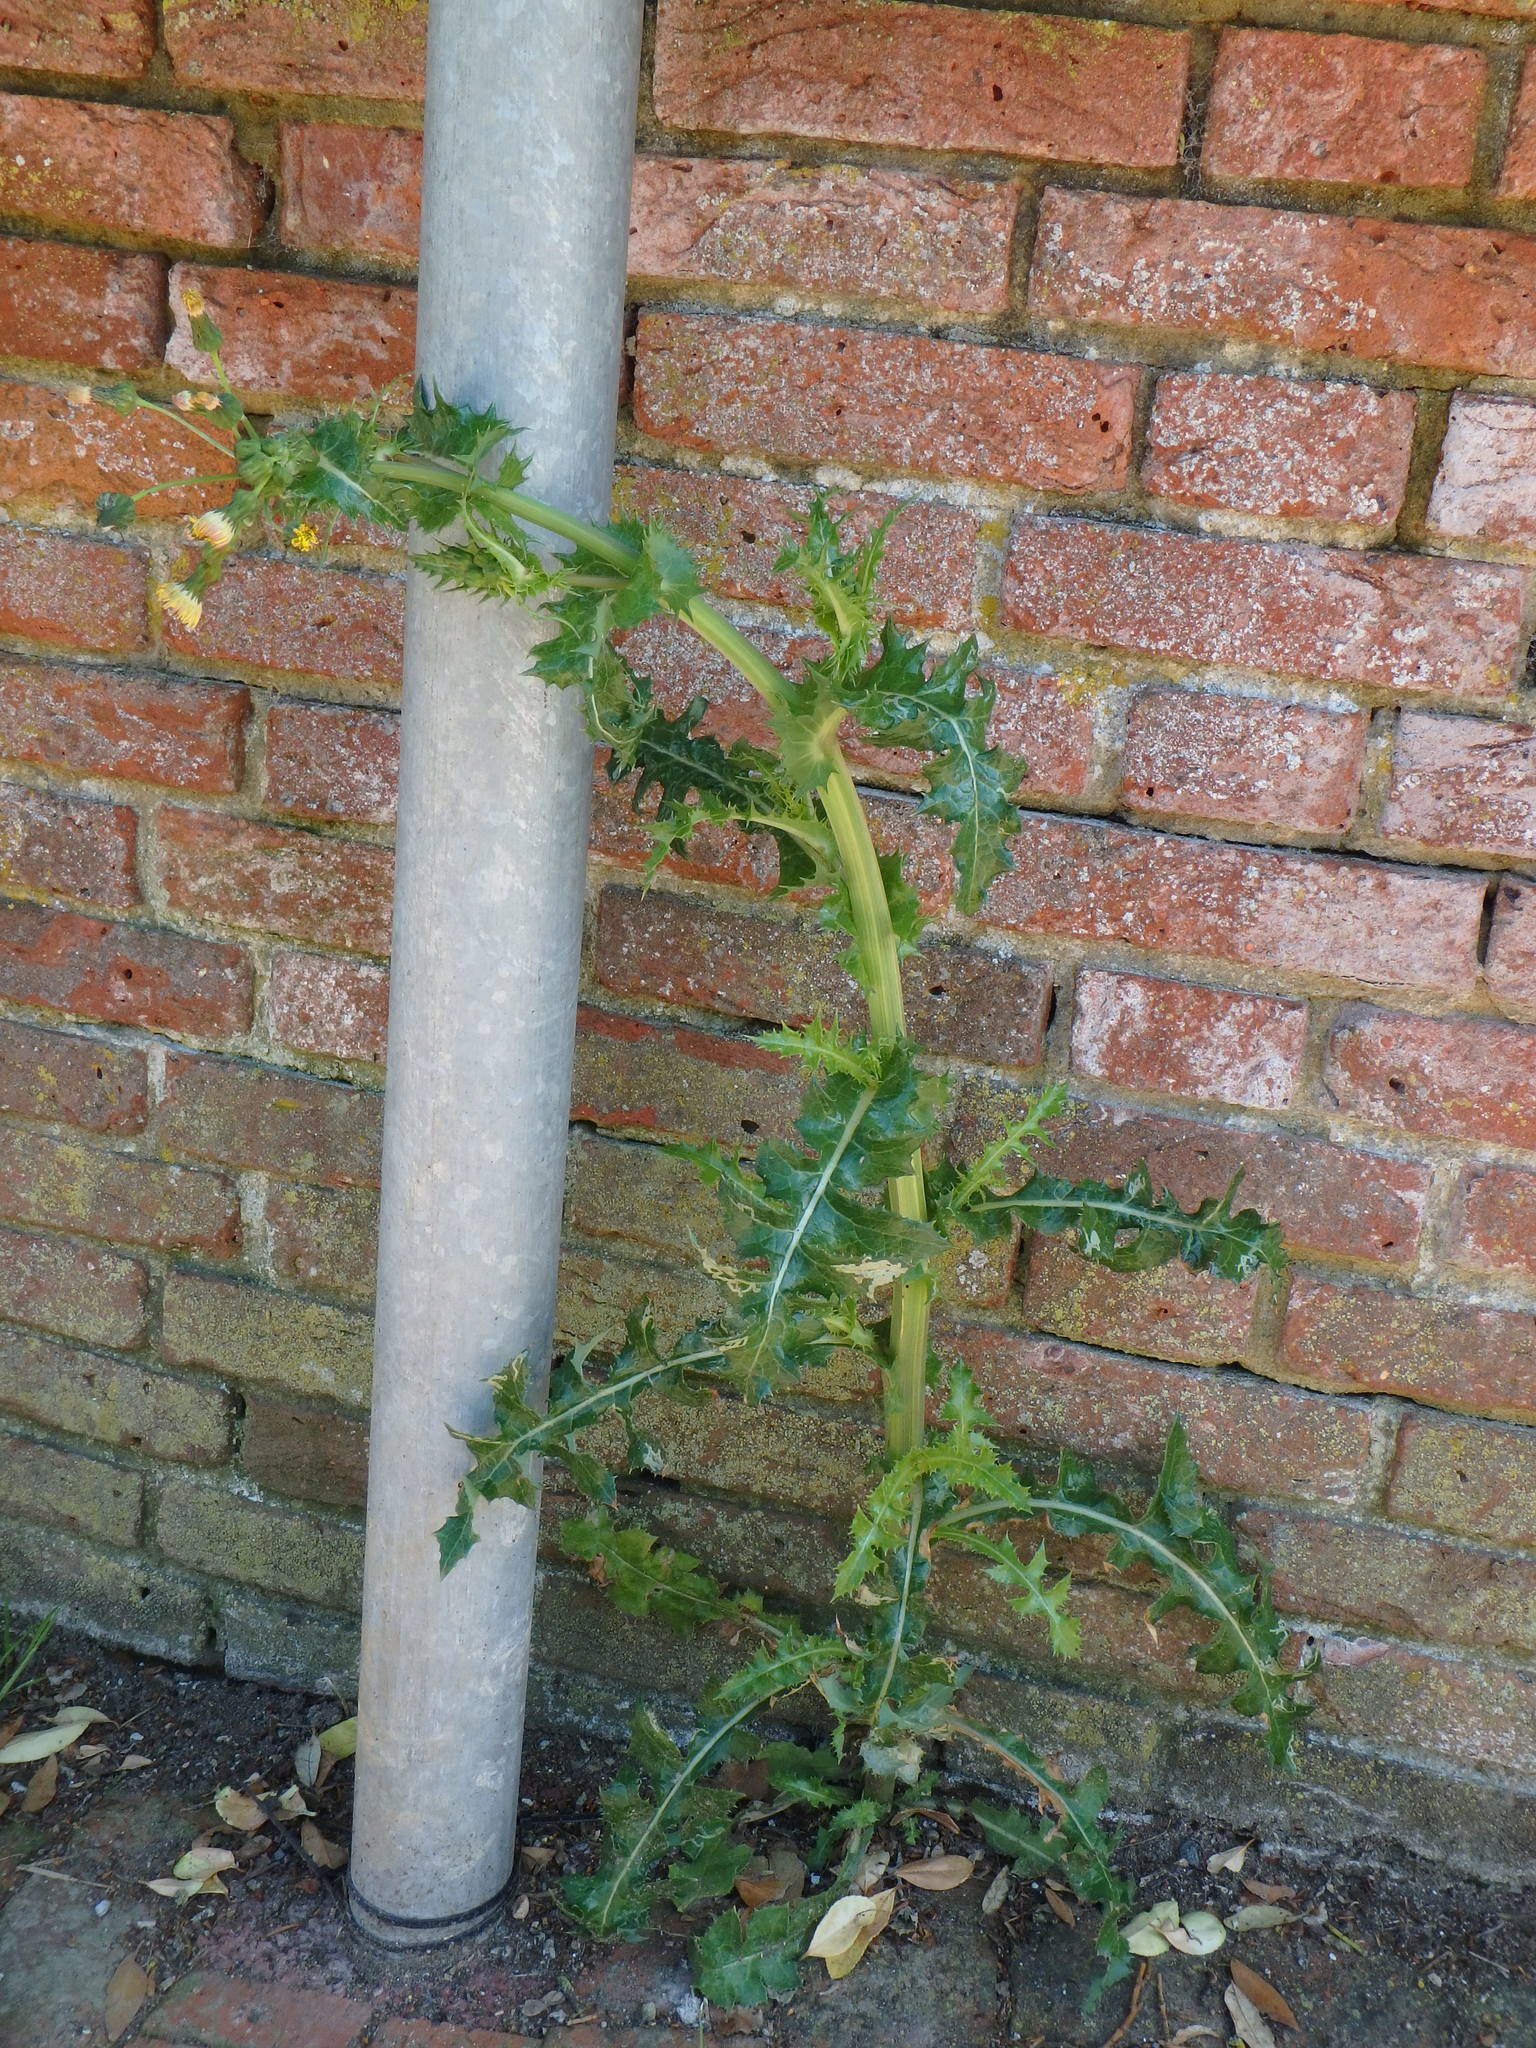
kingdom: Plantae
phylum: Tracheophyta
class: Magnoliopsida
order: Asterales
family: Asteraceae
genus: Sonchus
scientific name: Sonchus asper
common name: Prickly sow-thistle
